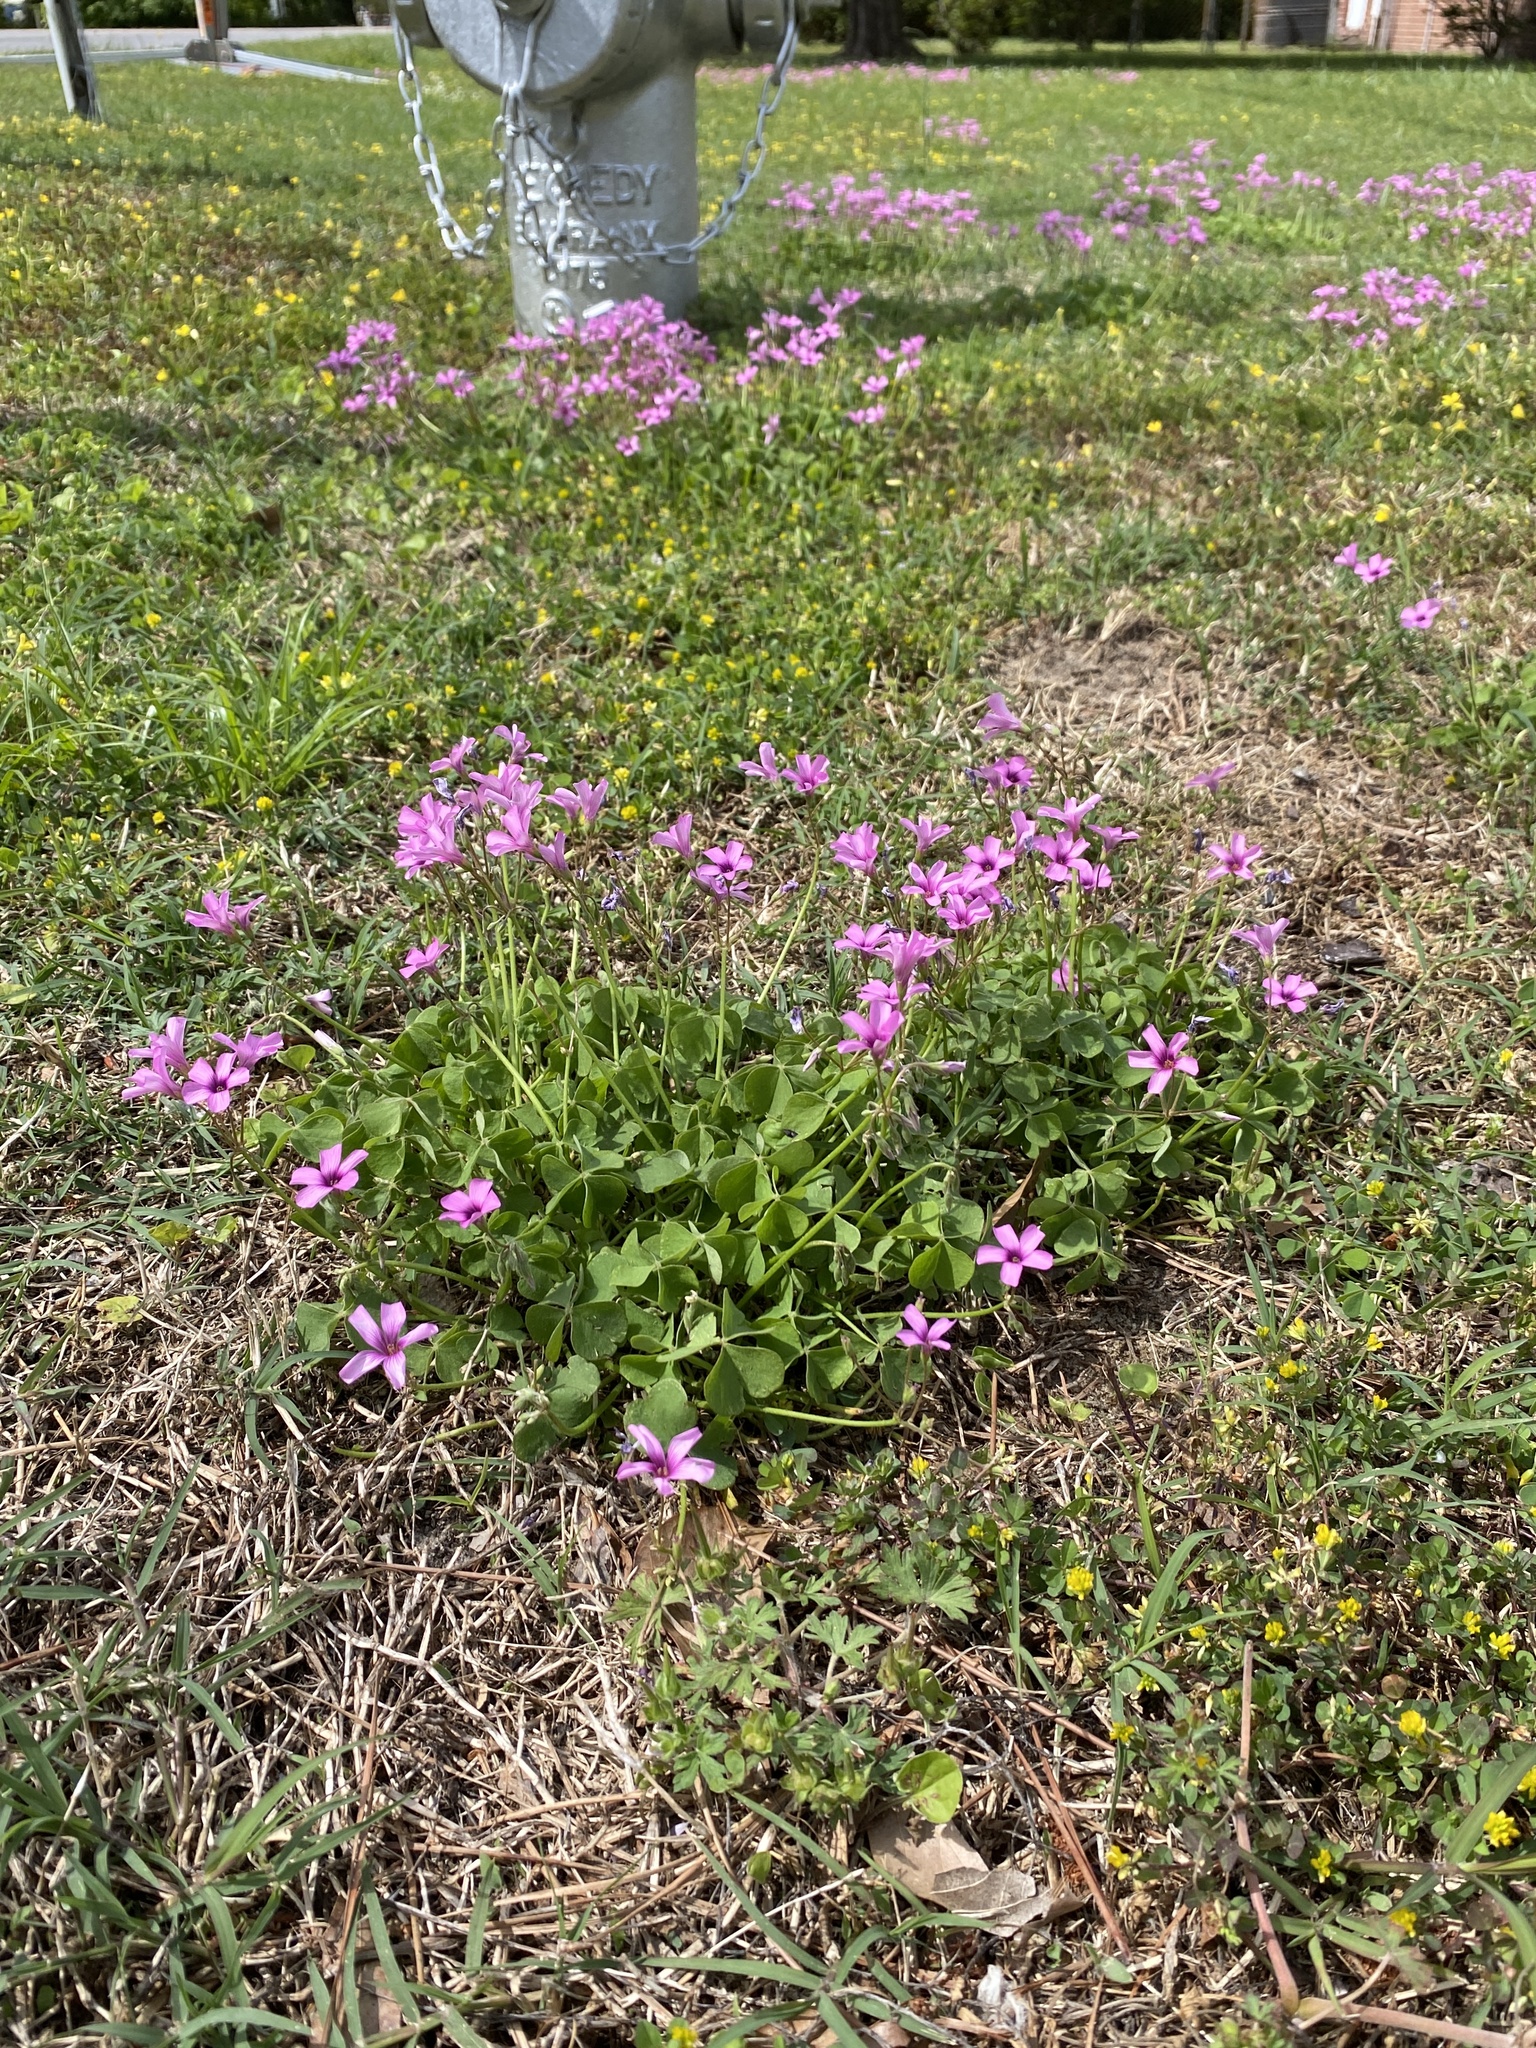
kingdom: Plantae
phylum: Tracheophyta
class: Magnoliopsida
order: Oxalidales
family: Oxalidaceae
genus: Oxalis
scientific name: Oxalis articulata
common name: Pink-sorrel
